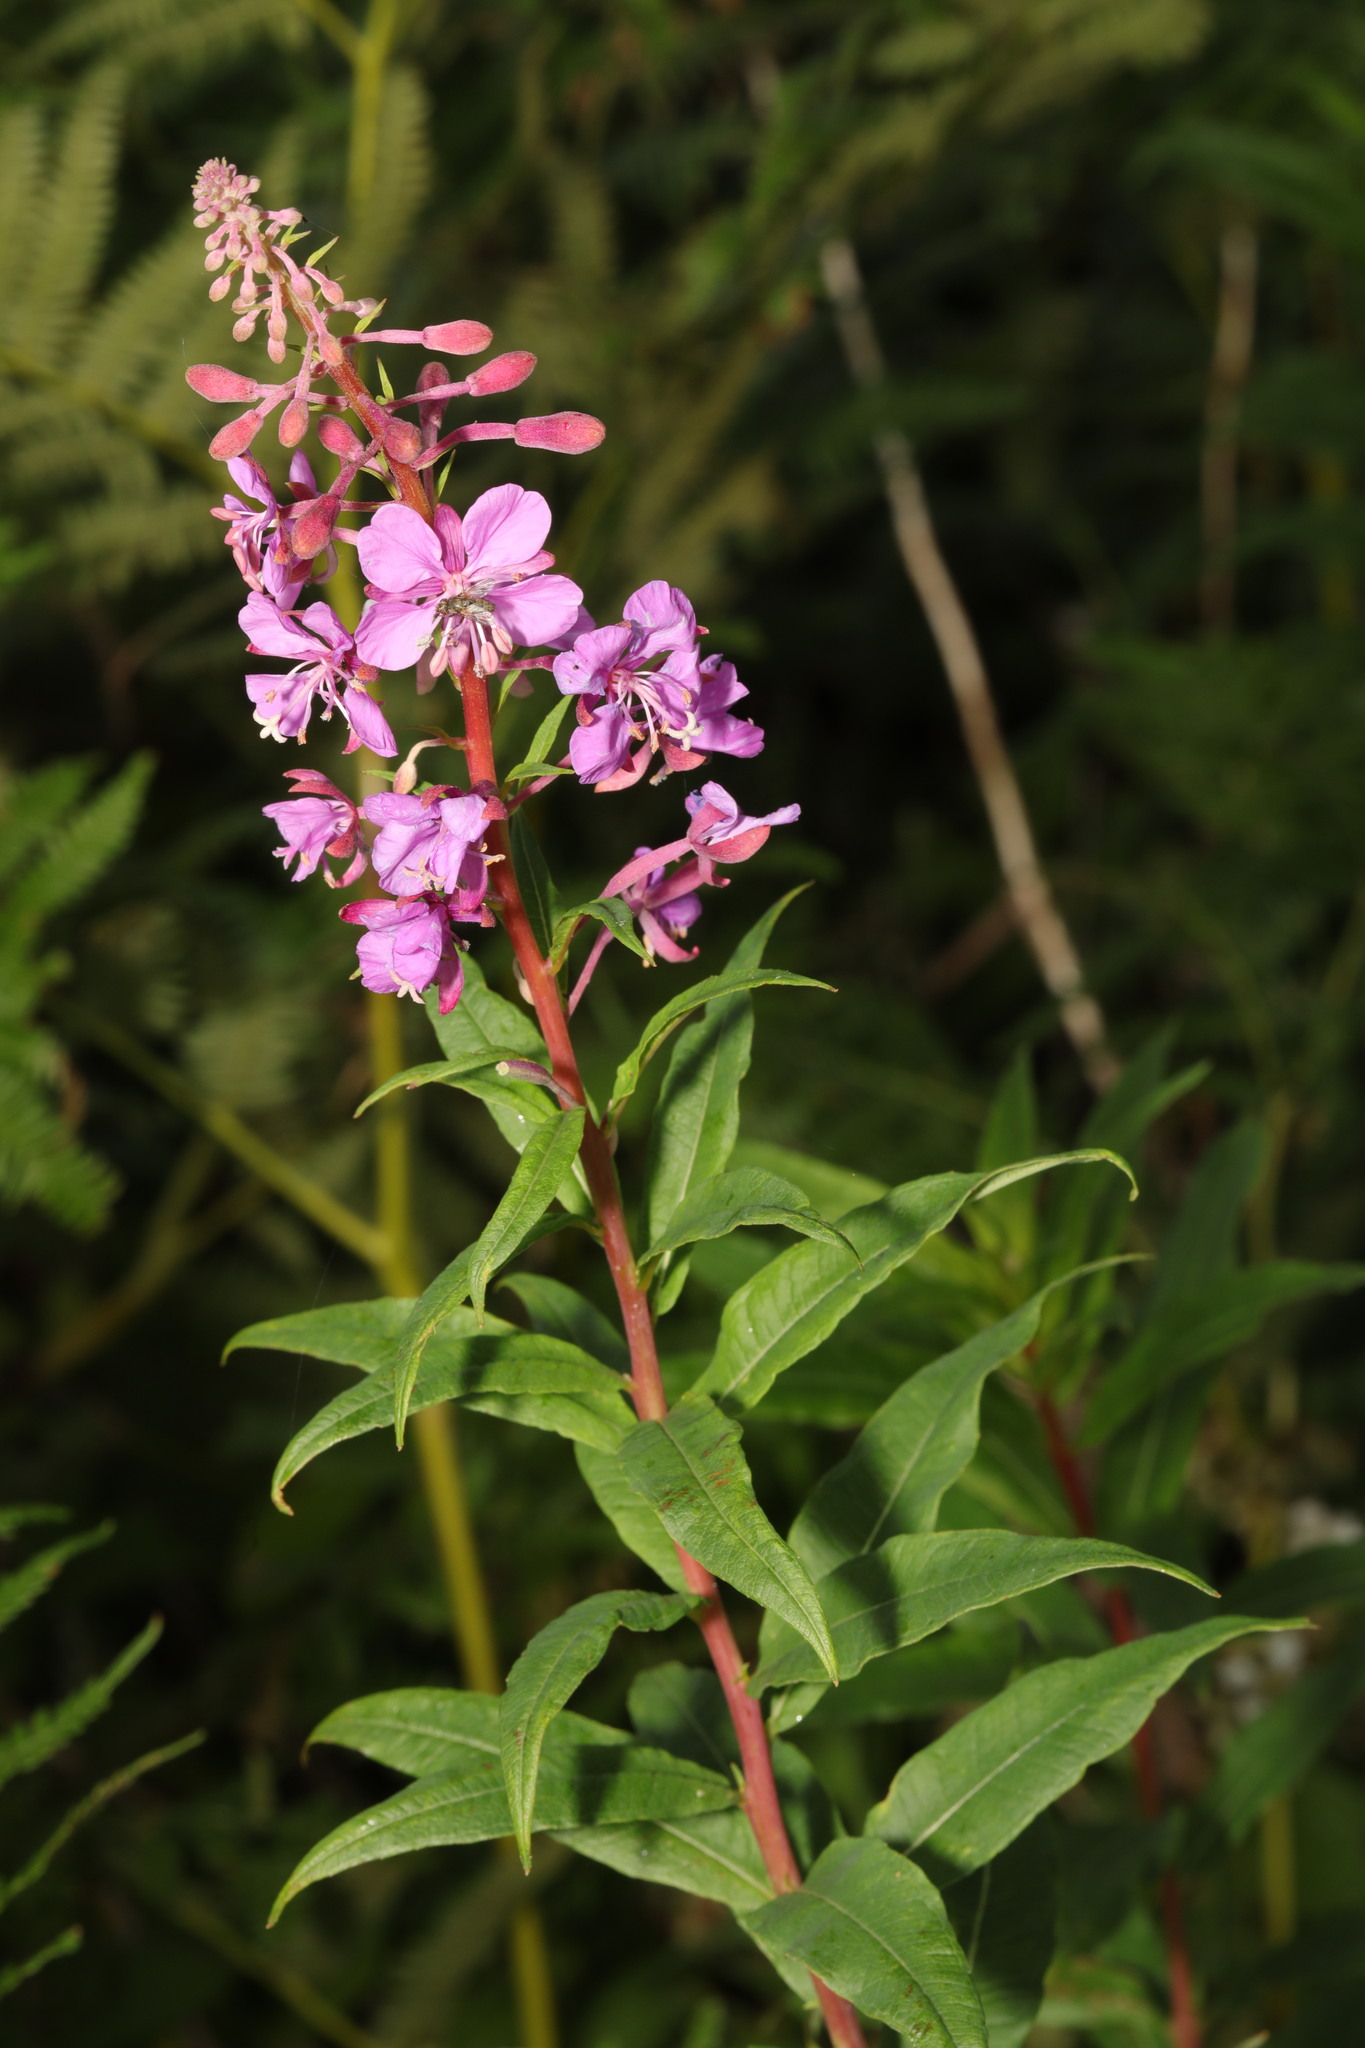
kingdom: Plantae
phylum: Tracheophyta
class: Magnoliopsida
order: Myrtales
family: Onagraceae
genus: Chamaenerion
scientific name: Chamaenerion angustifolium
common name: Fireweed
